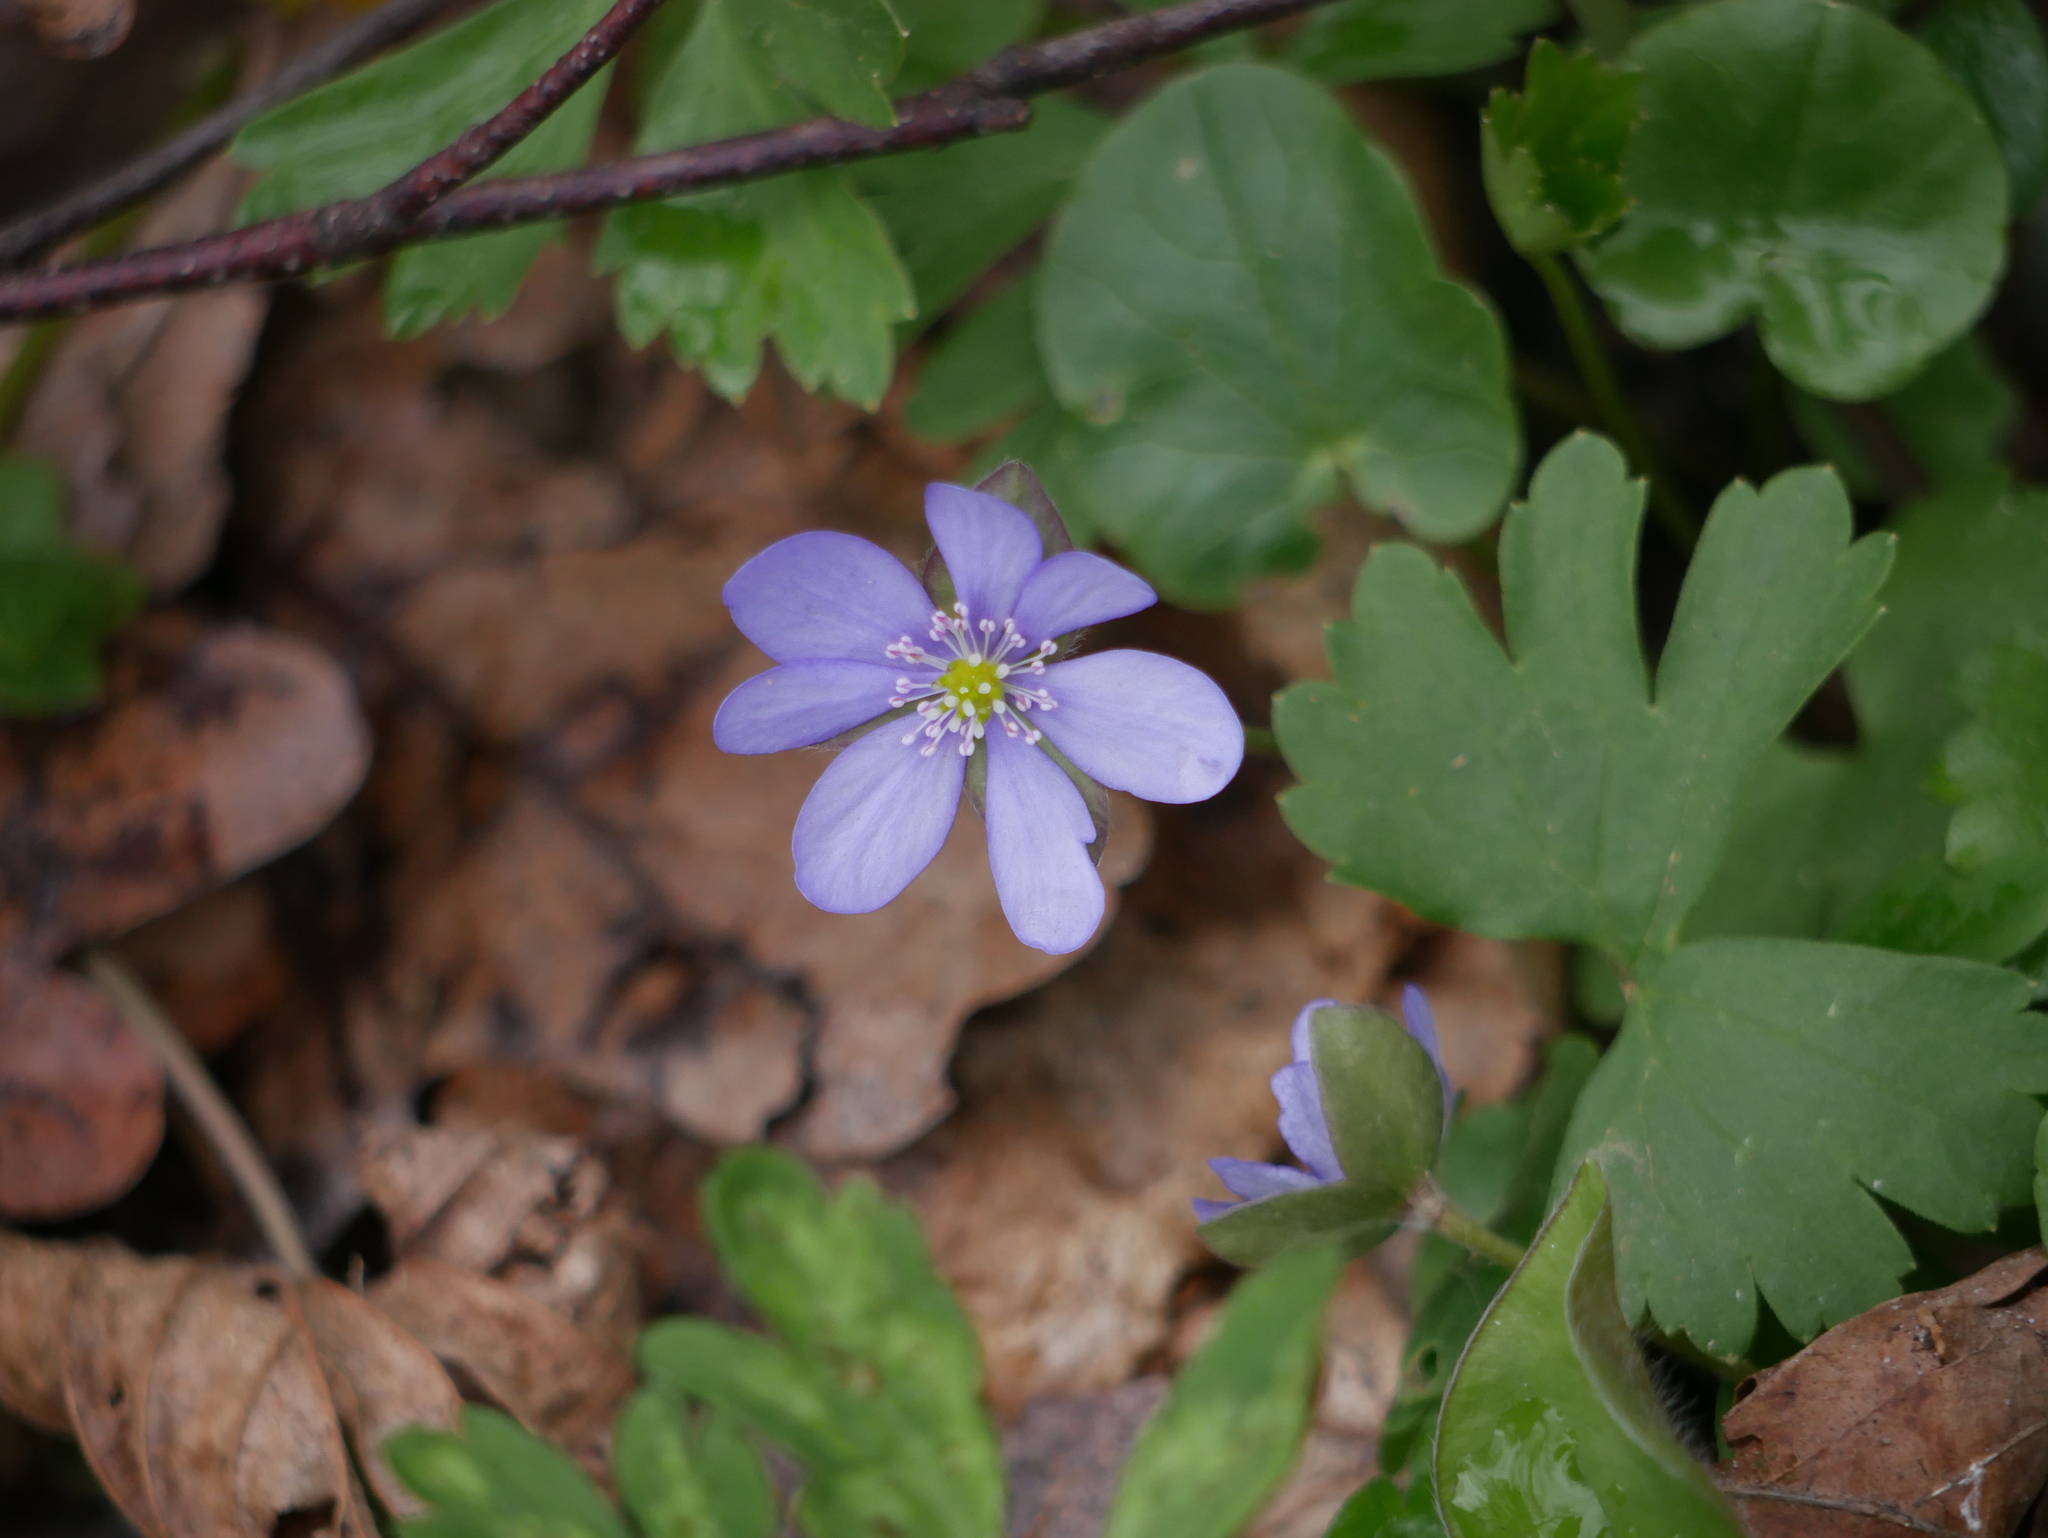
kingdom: Plantae
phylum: Tracheophyta
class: Magnoliopsida
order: Ranunculales
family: Ranunculaceae
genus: Hepatica
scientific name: Hepatica nobilis
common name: Liverleaf
